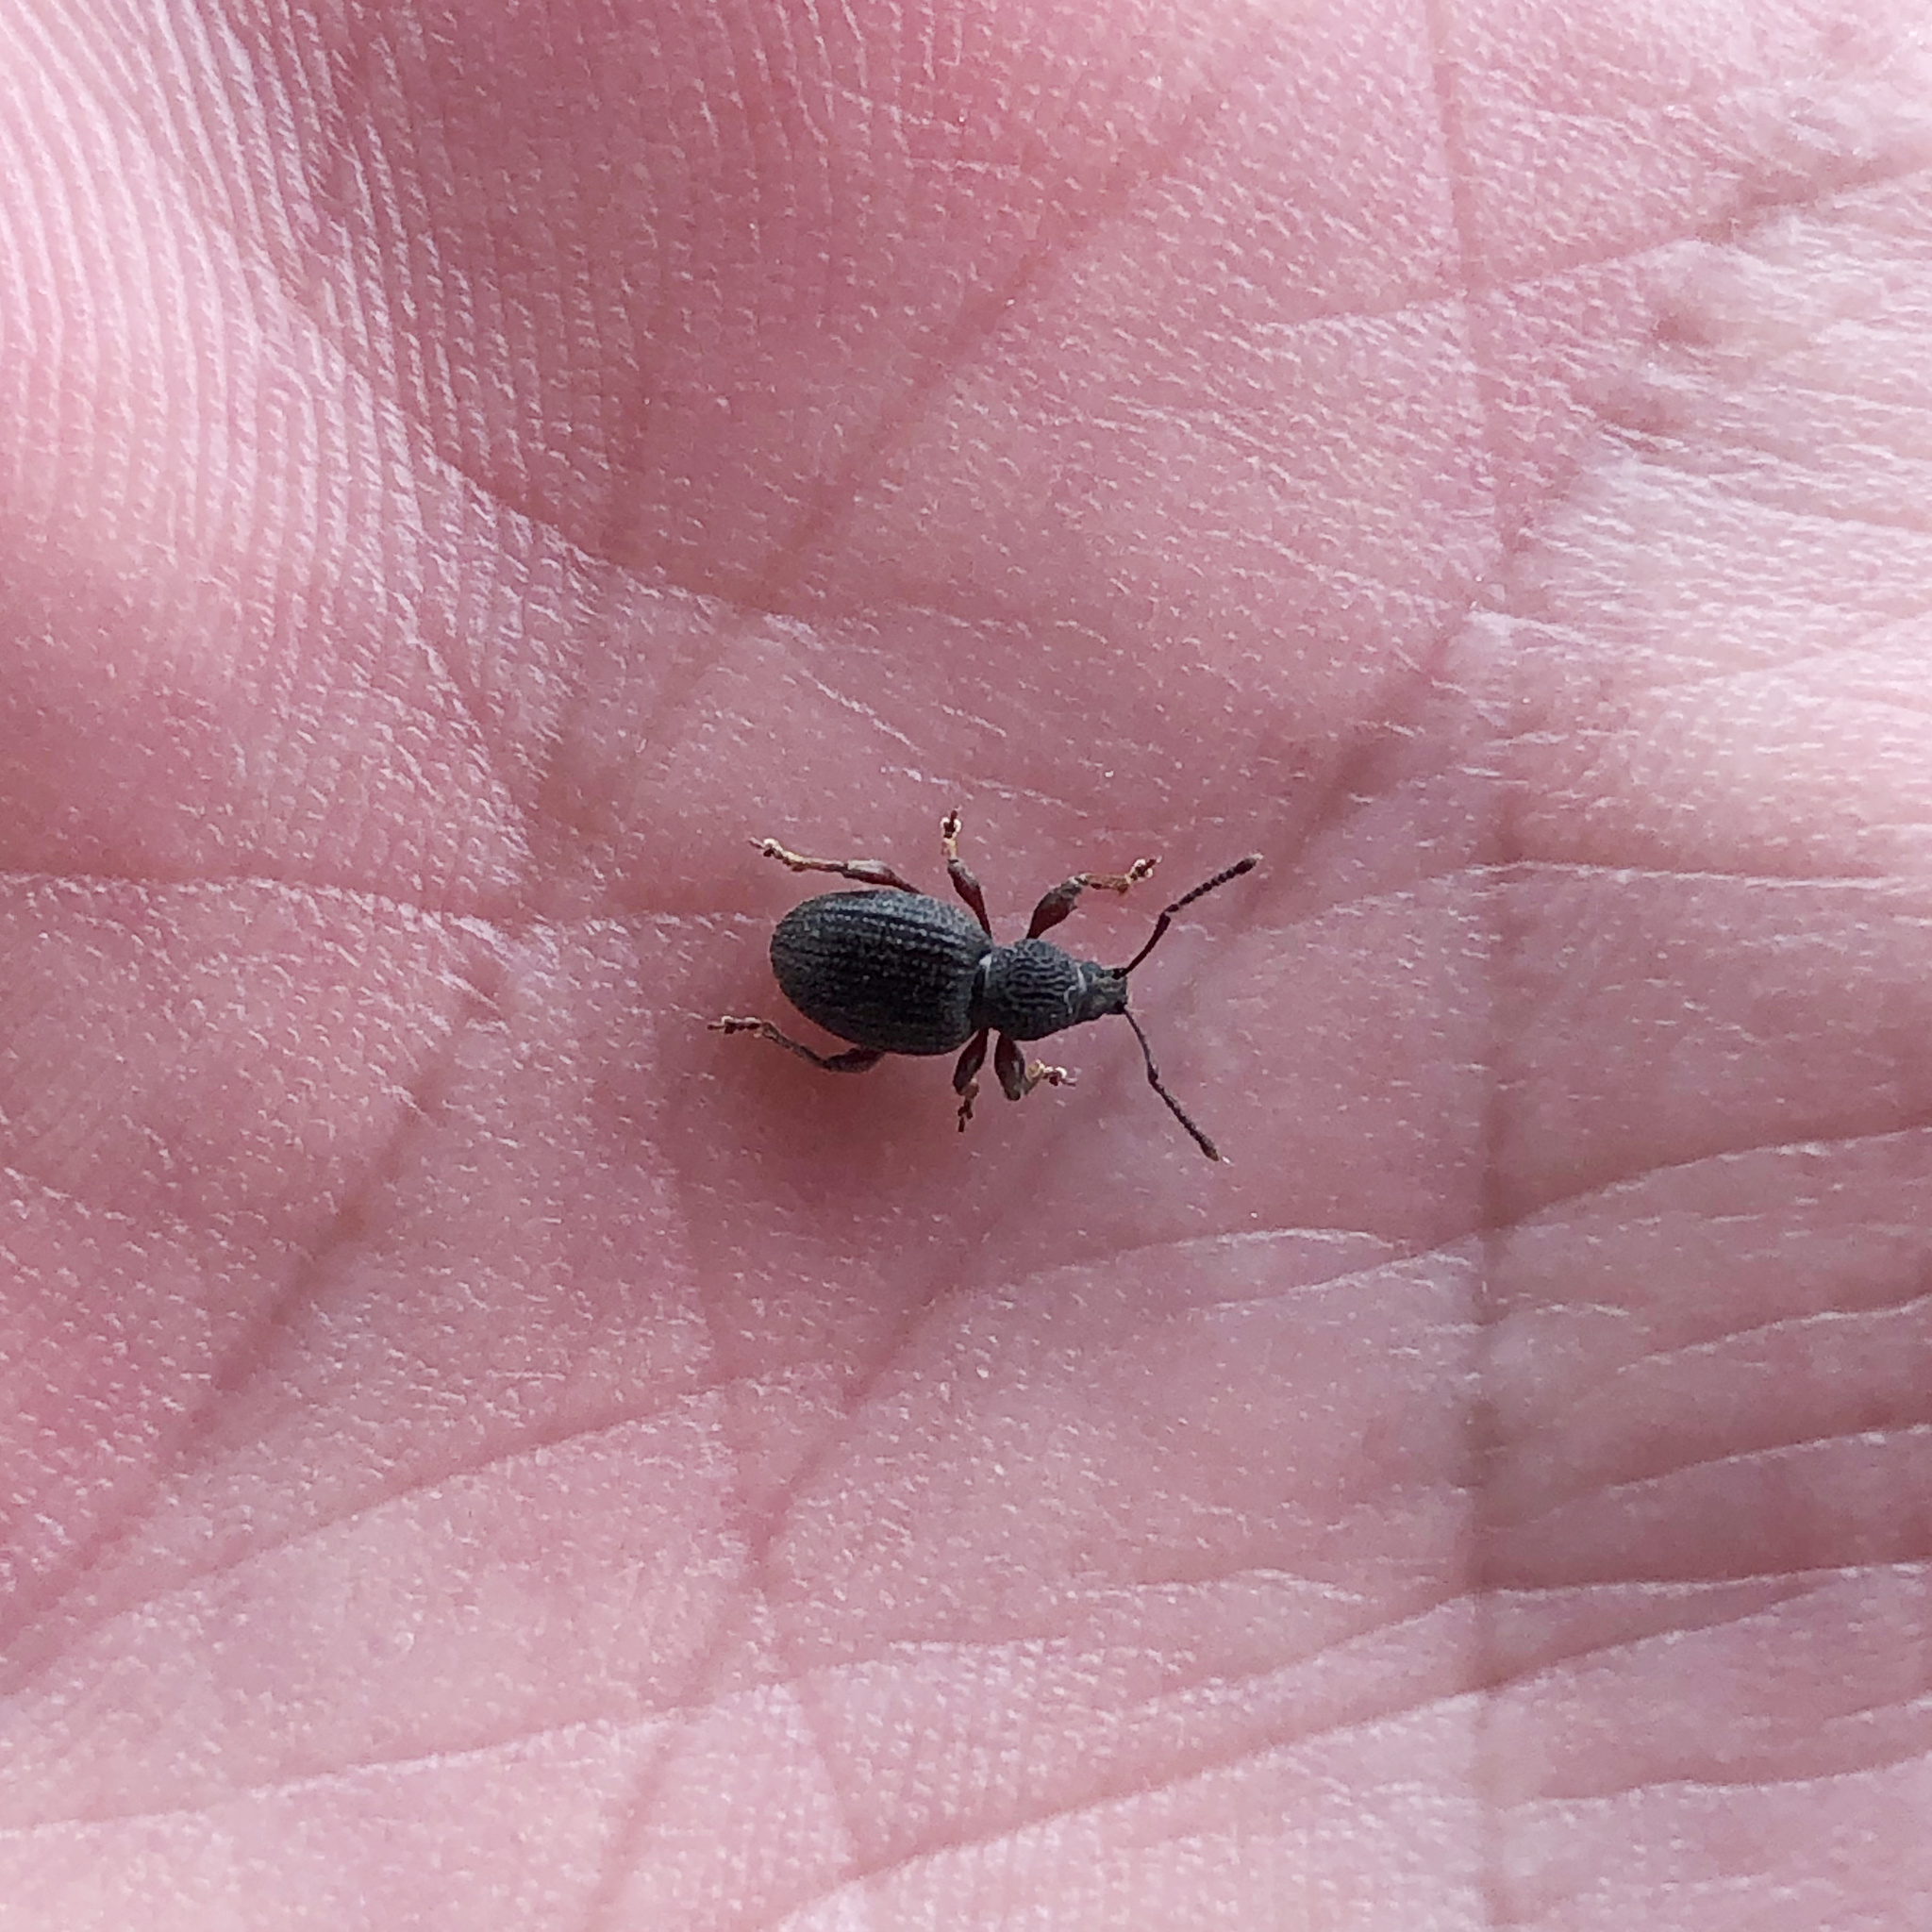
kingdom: Animalia
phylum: Arthropoda
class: Insecta
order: Coleoptera
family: Curculionidae
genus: Otiorhynchus
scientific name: Otiorhynchus ovatus
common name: Strawberry root weevil
